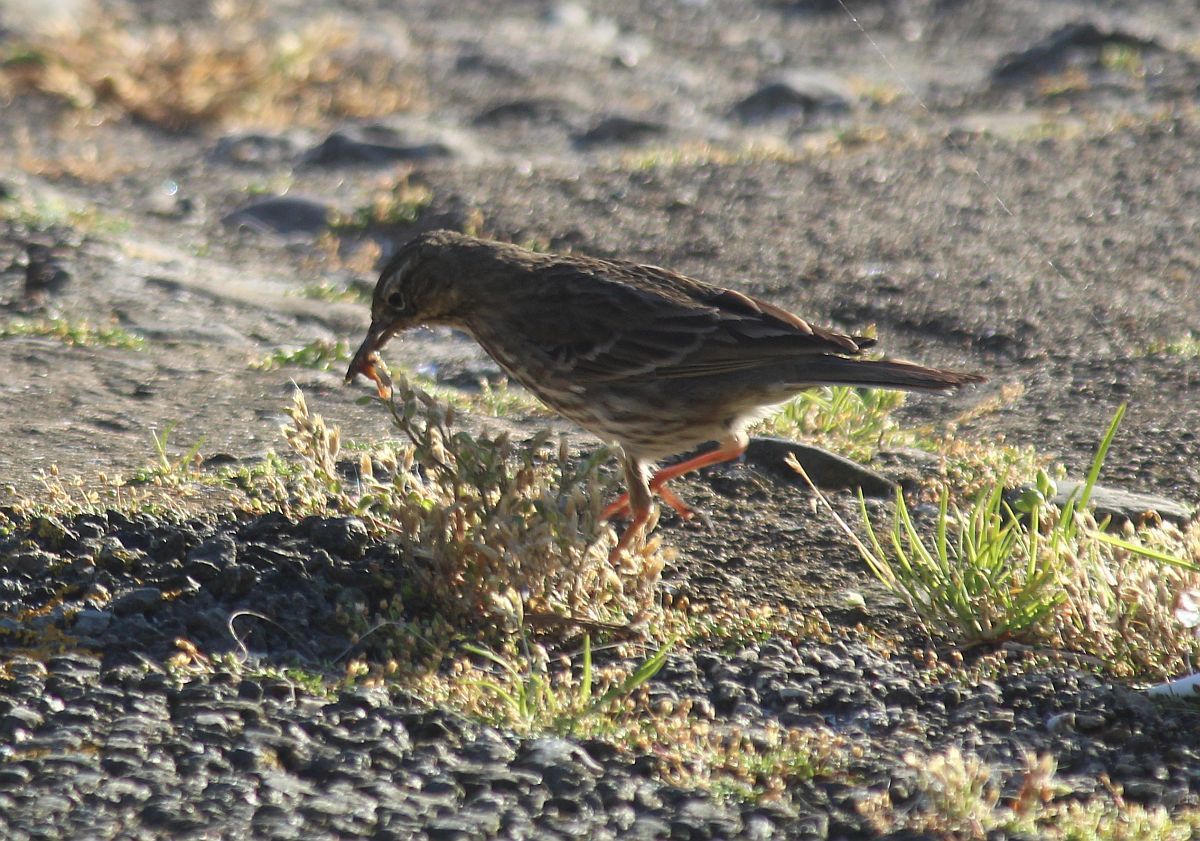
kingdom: Animalia
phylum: Chordata
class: Aves
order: Passeriformes
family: Motacillidae
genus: Anthus
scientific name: Anthus petrosus
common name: Eurasian rock pipit
